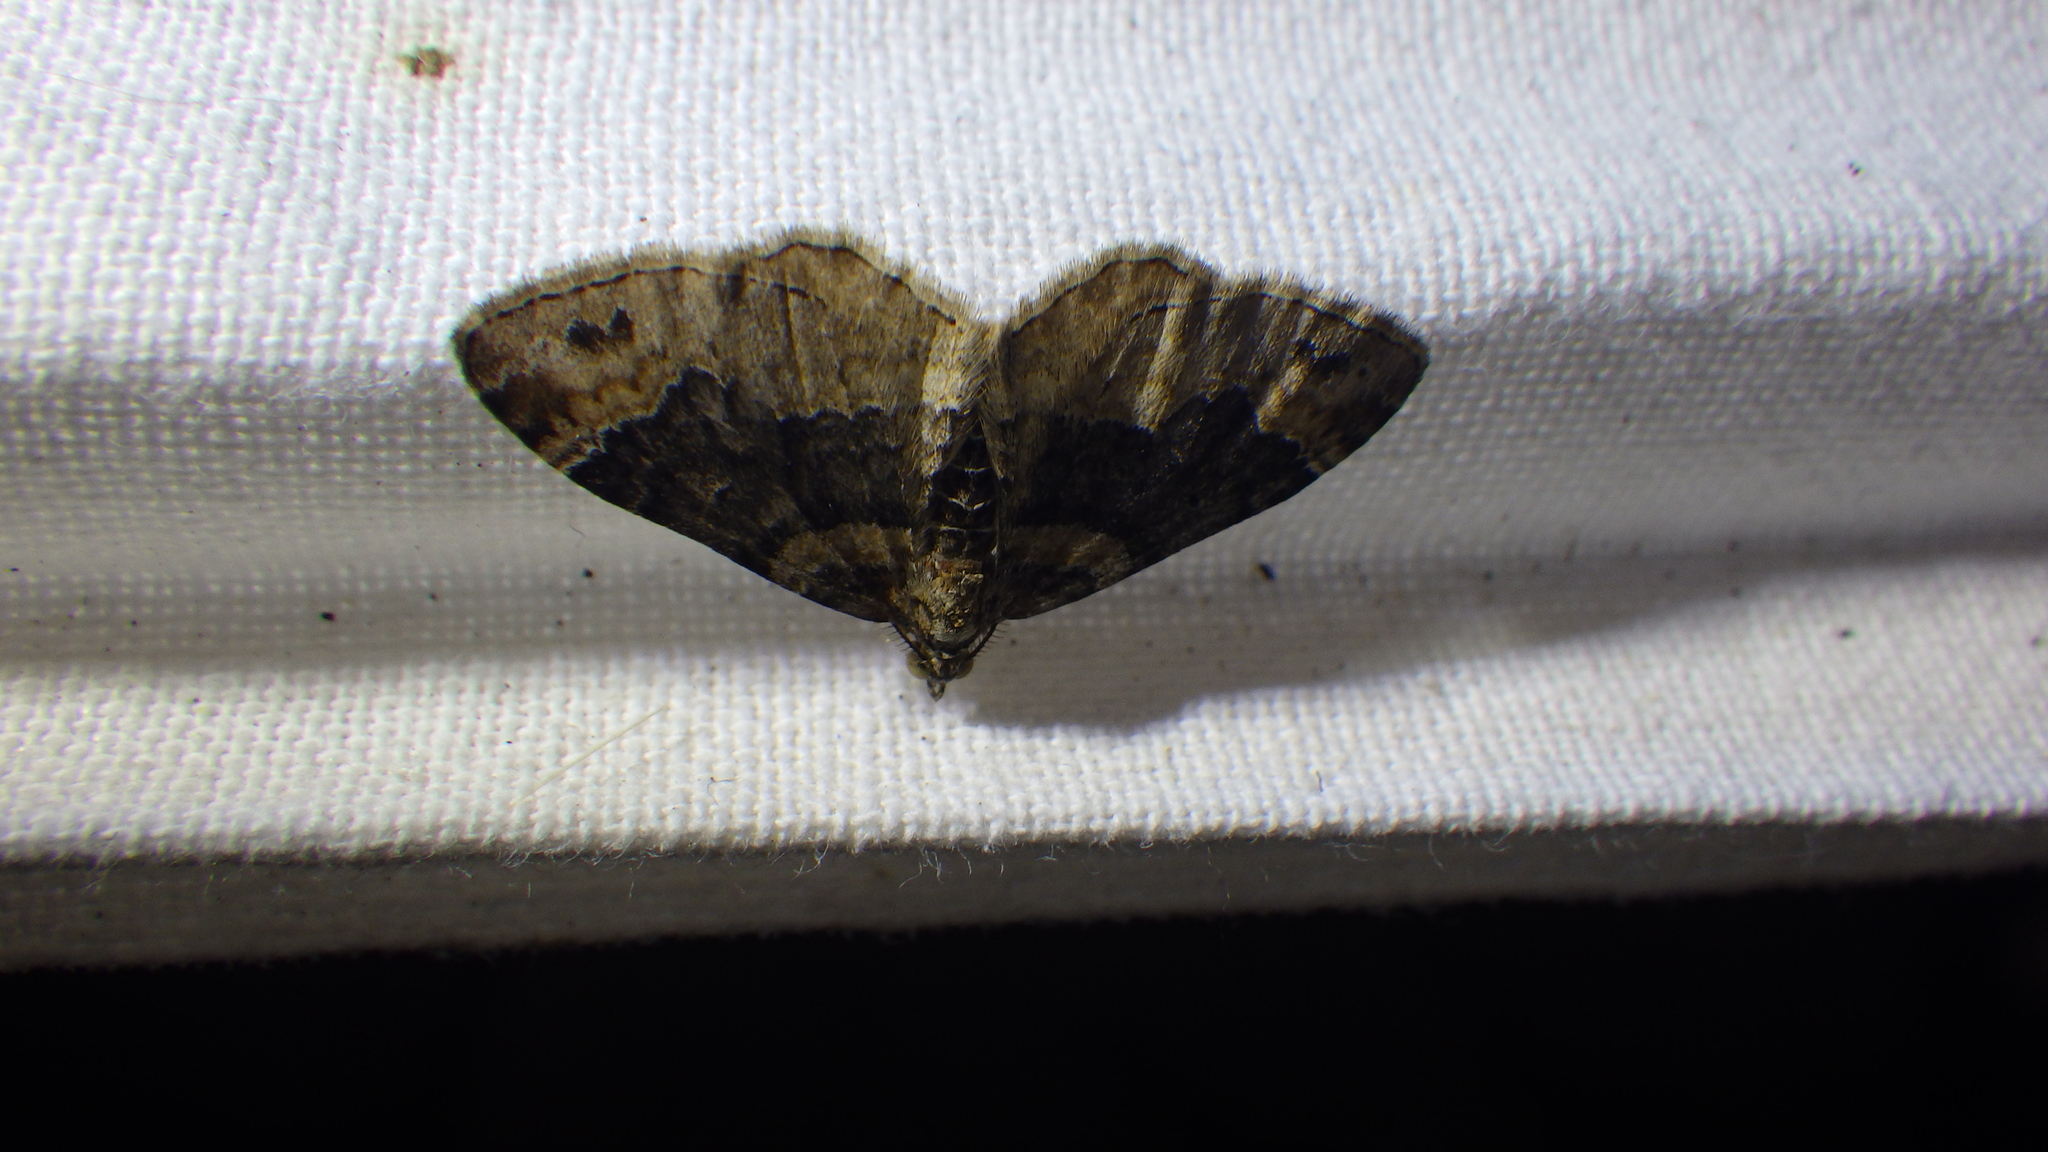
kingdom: Animalia
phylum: Arthropoda
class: Insecta
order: Lepidoptera
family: Geometridae
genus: Xanthorhoe
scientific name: Xanthorhoe ferrugata
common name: Dark-barred twin-spot carpet
